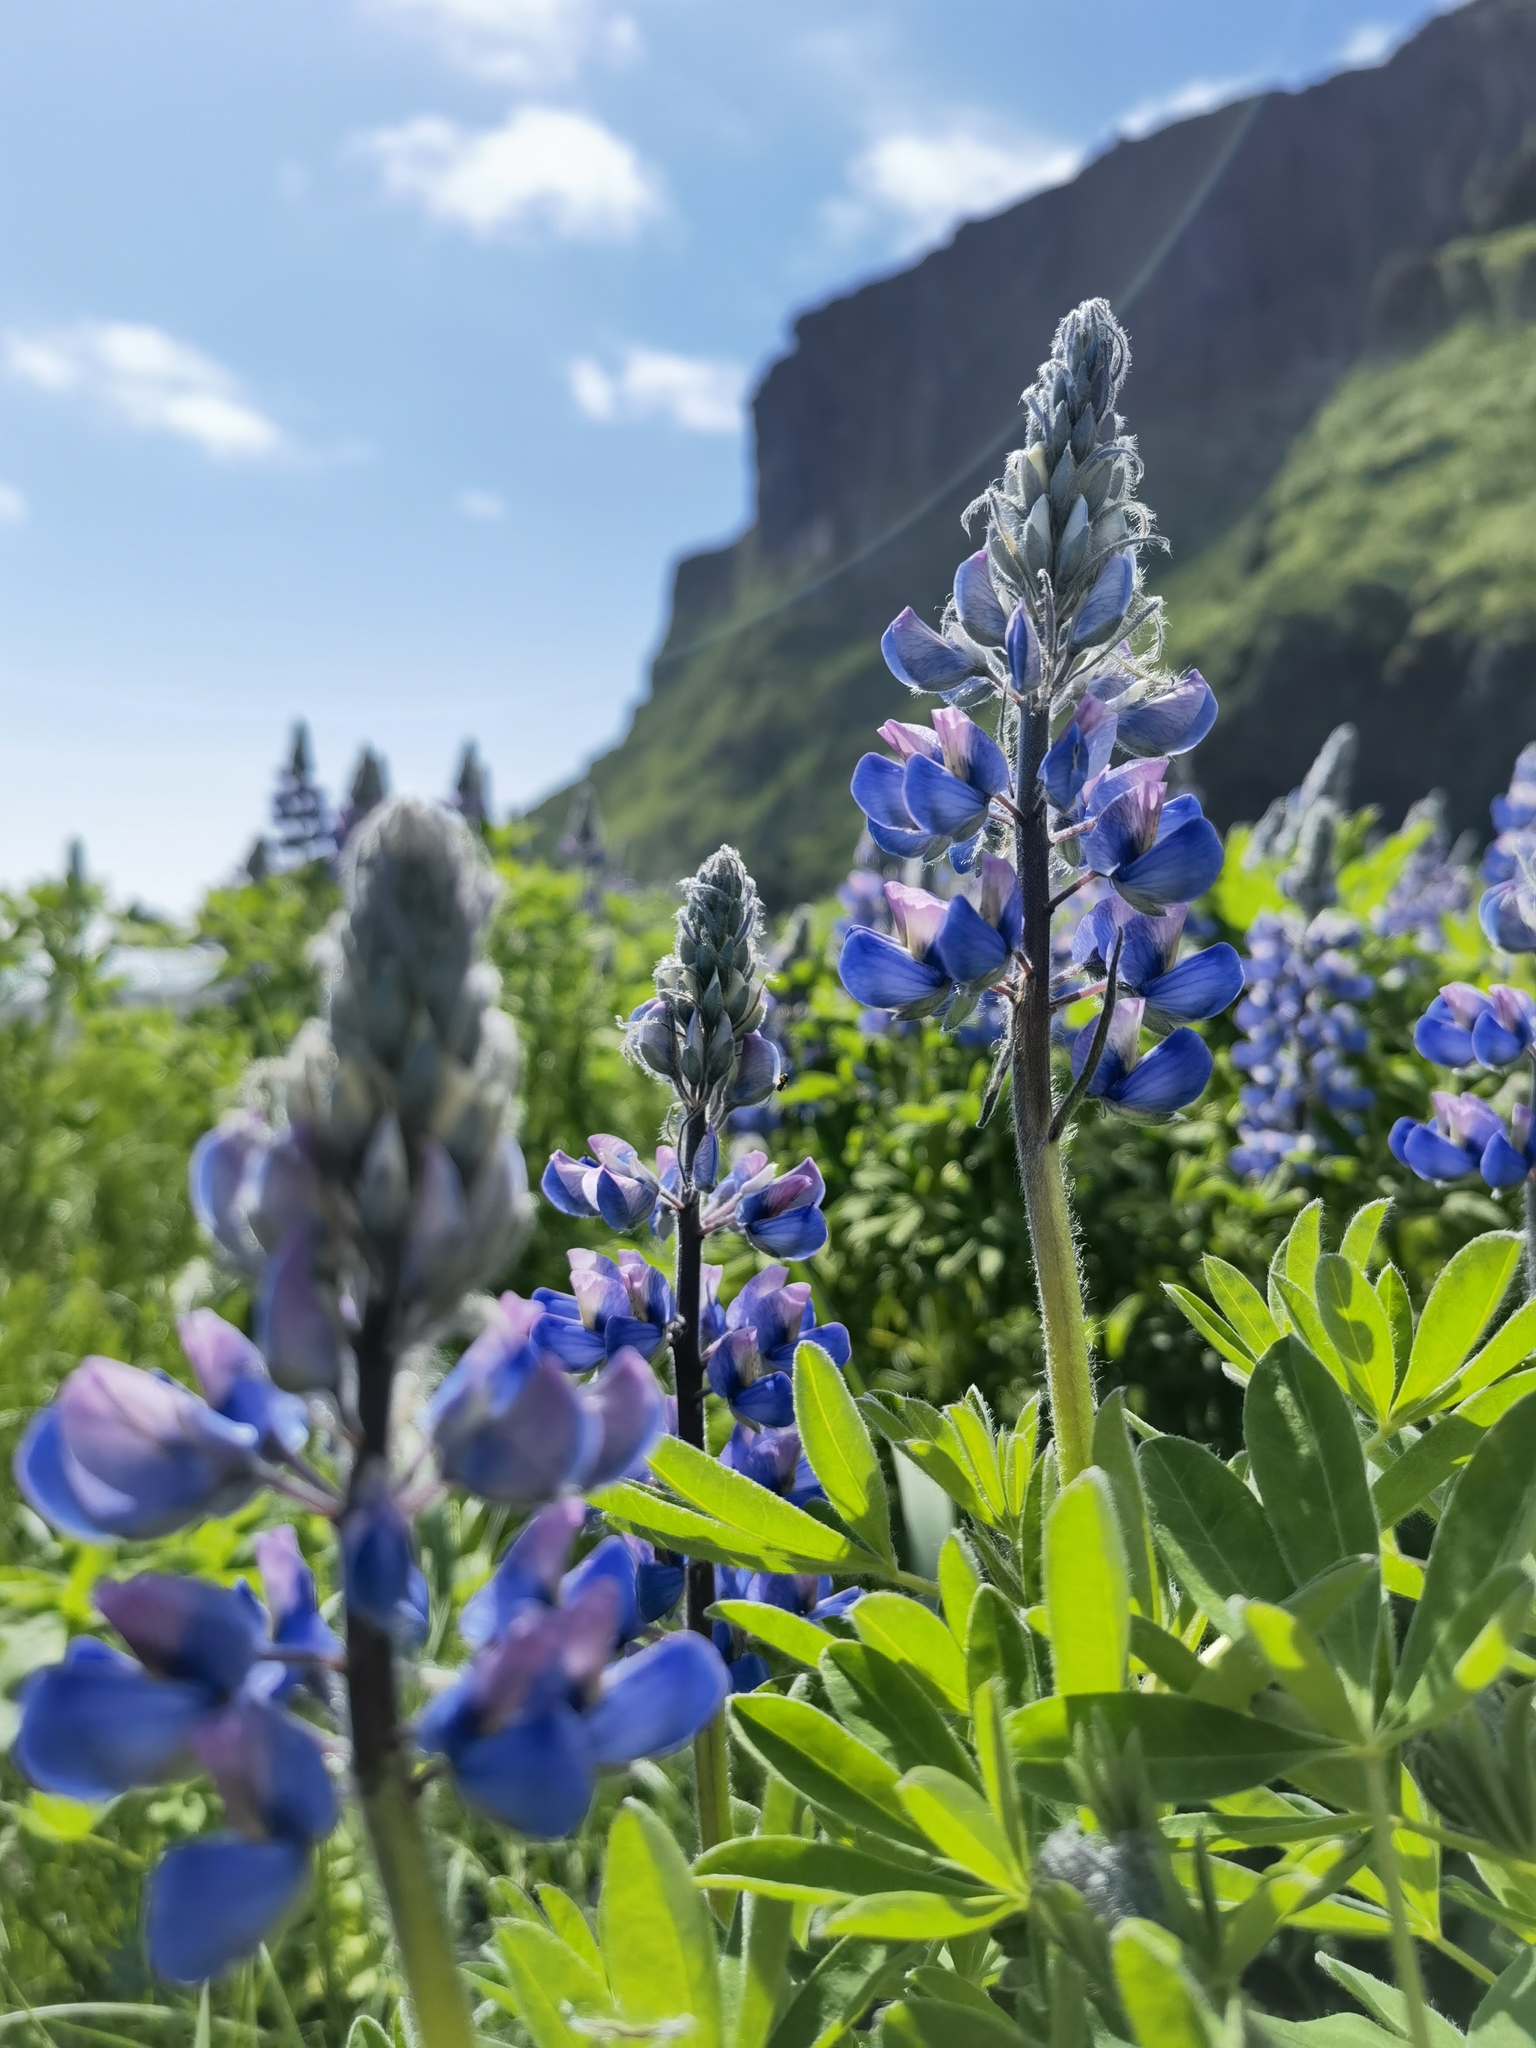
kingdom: Plantae
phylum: Tracheophyta
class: Magnoliopsida
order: Fabales
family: Fabaceae
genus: Lupinus
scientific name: Lupinus nootkatensis
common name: Nootka lupine
